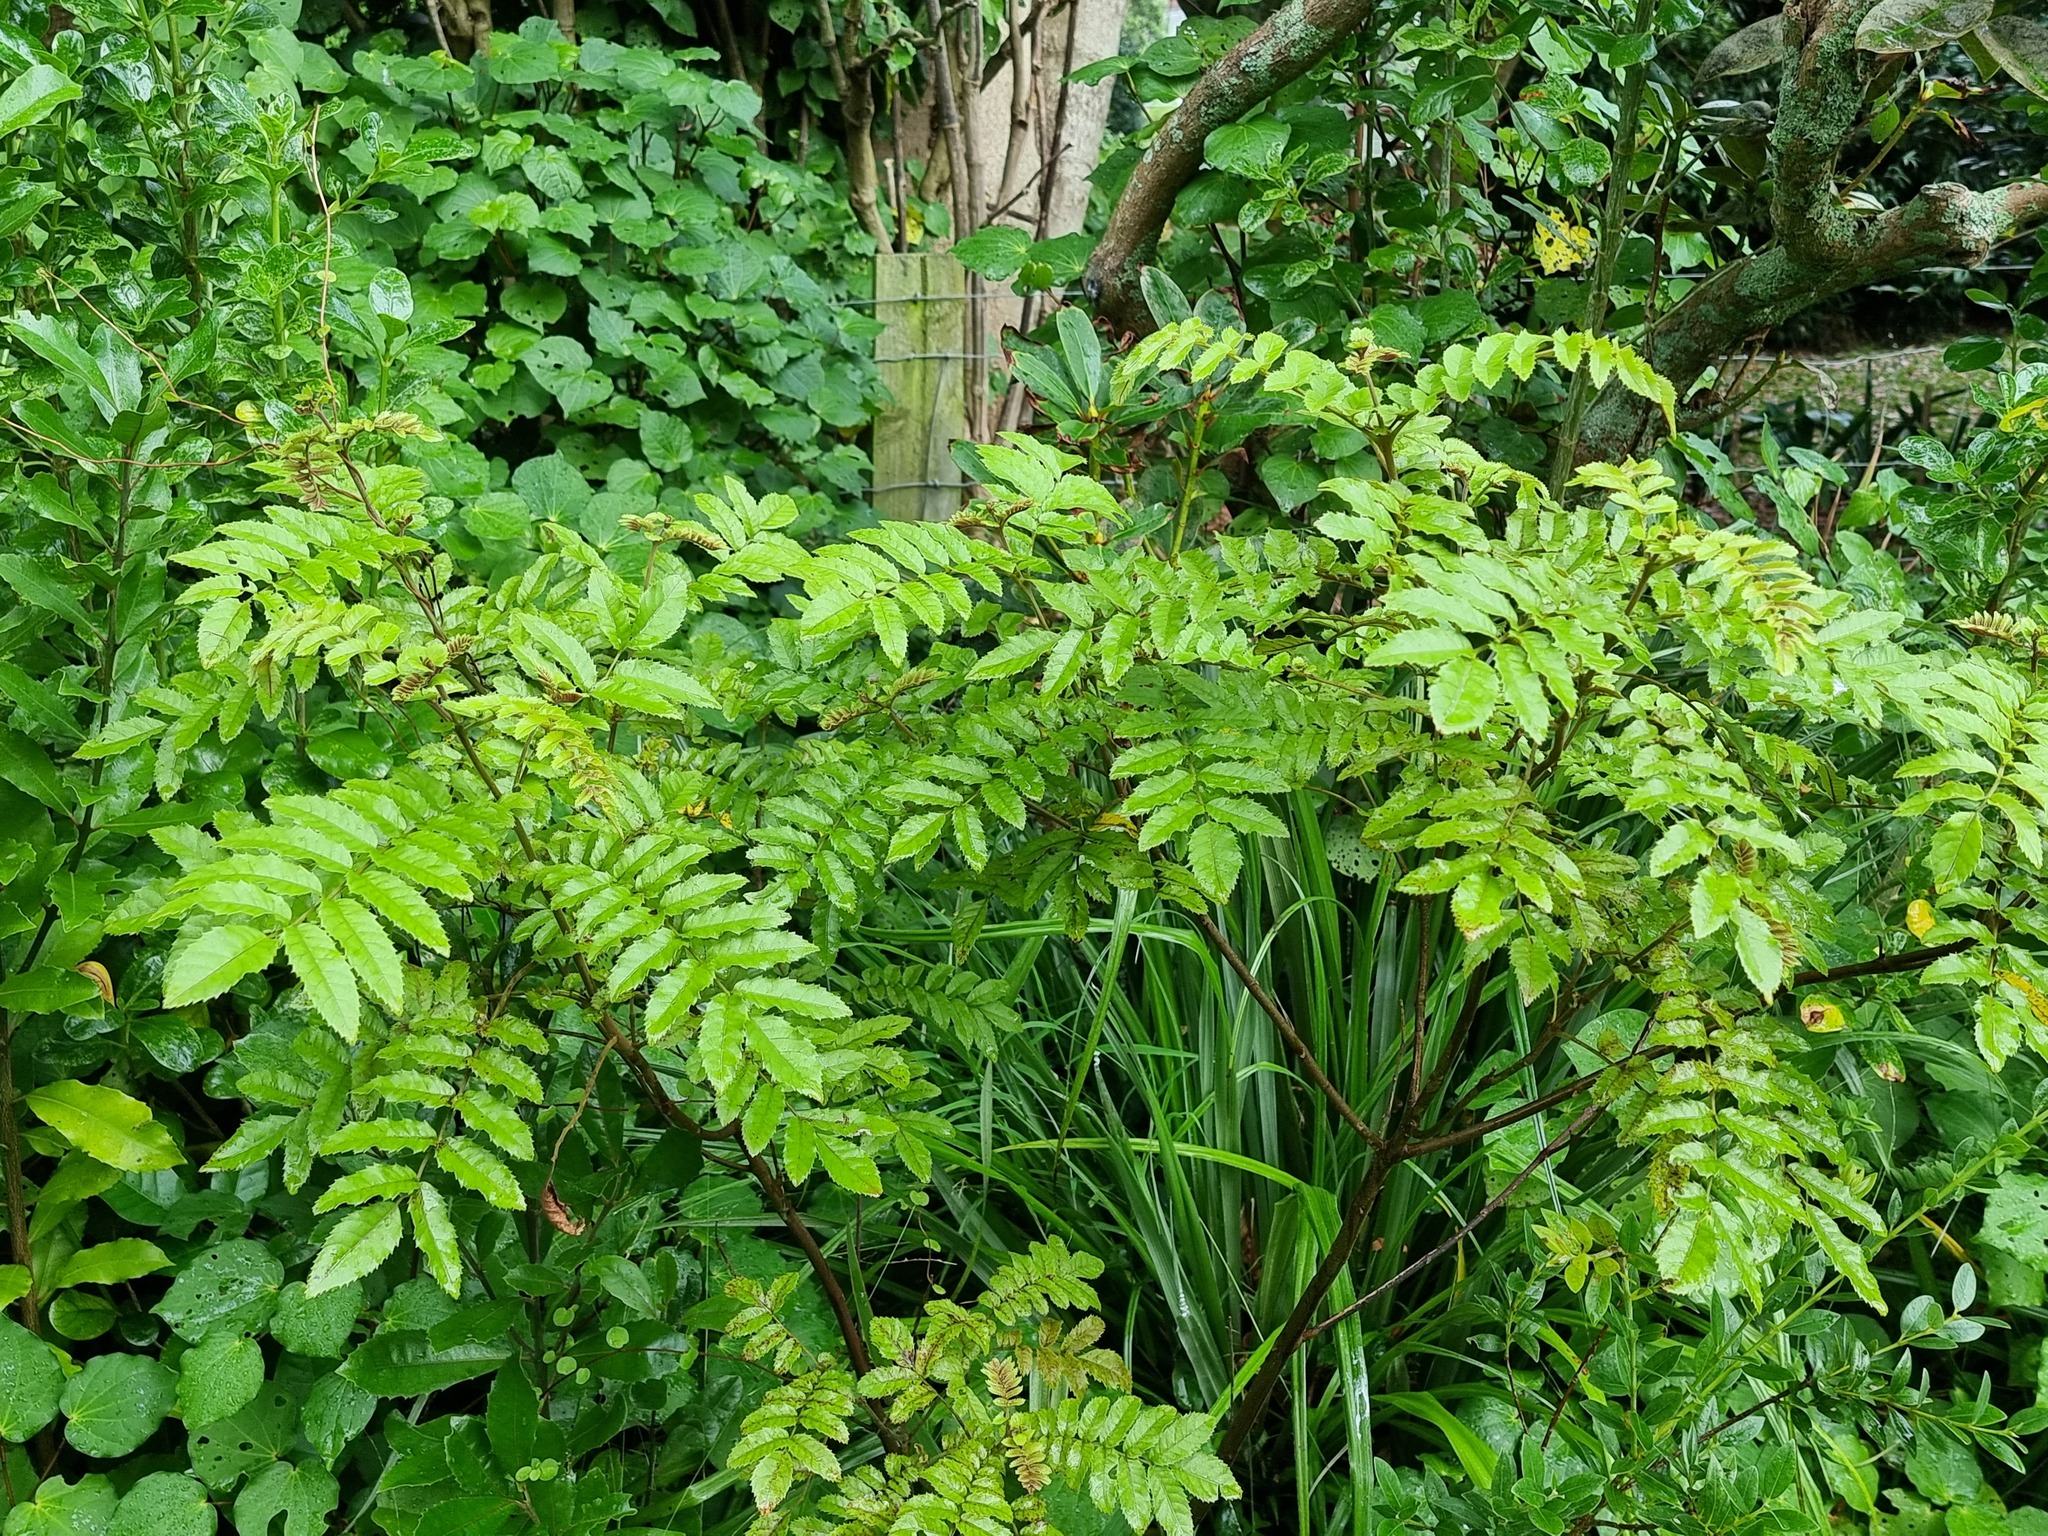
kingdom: Plantae
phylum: Tracheophyta
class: Magnoliopsida
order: Oxalidales
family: Cunoniaceae
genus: Ackama
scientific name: Ackama rosifolia
